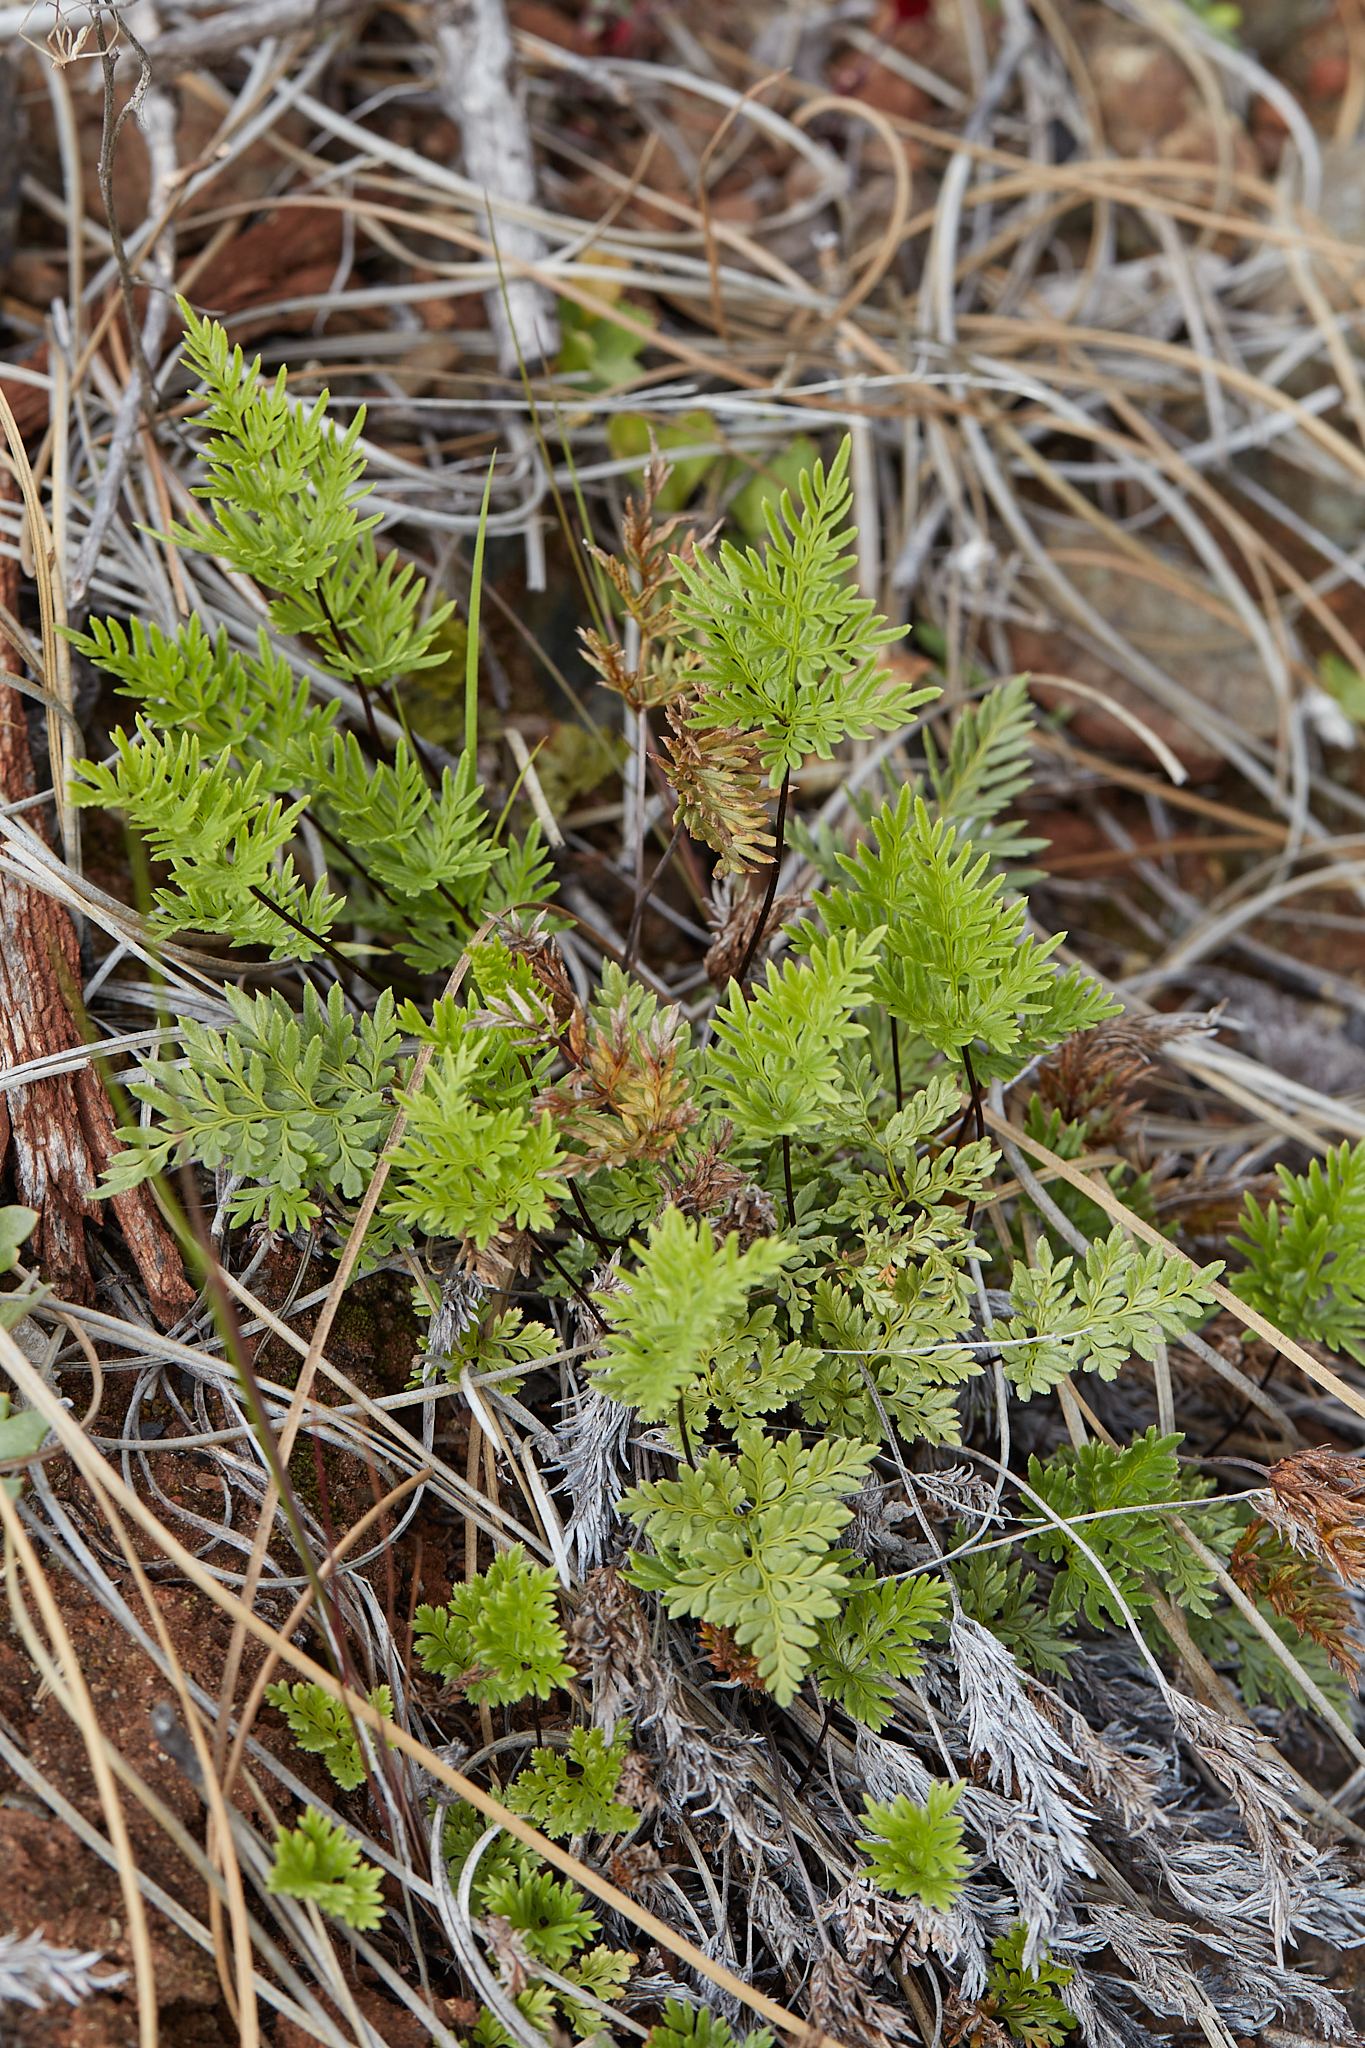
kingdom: Plantae
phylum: Tracheophyta
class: Polypodiopsida
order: Polypodiales
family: Pteridaceae
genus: Aspidotis
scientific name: Aspidotis densa
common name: Indian's dream
